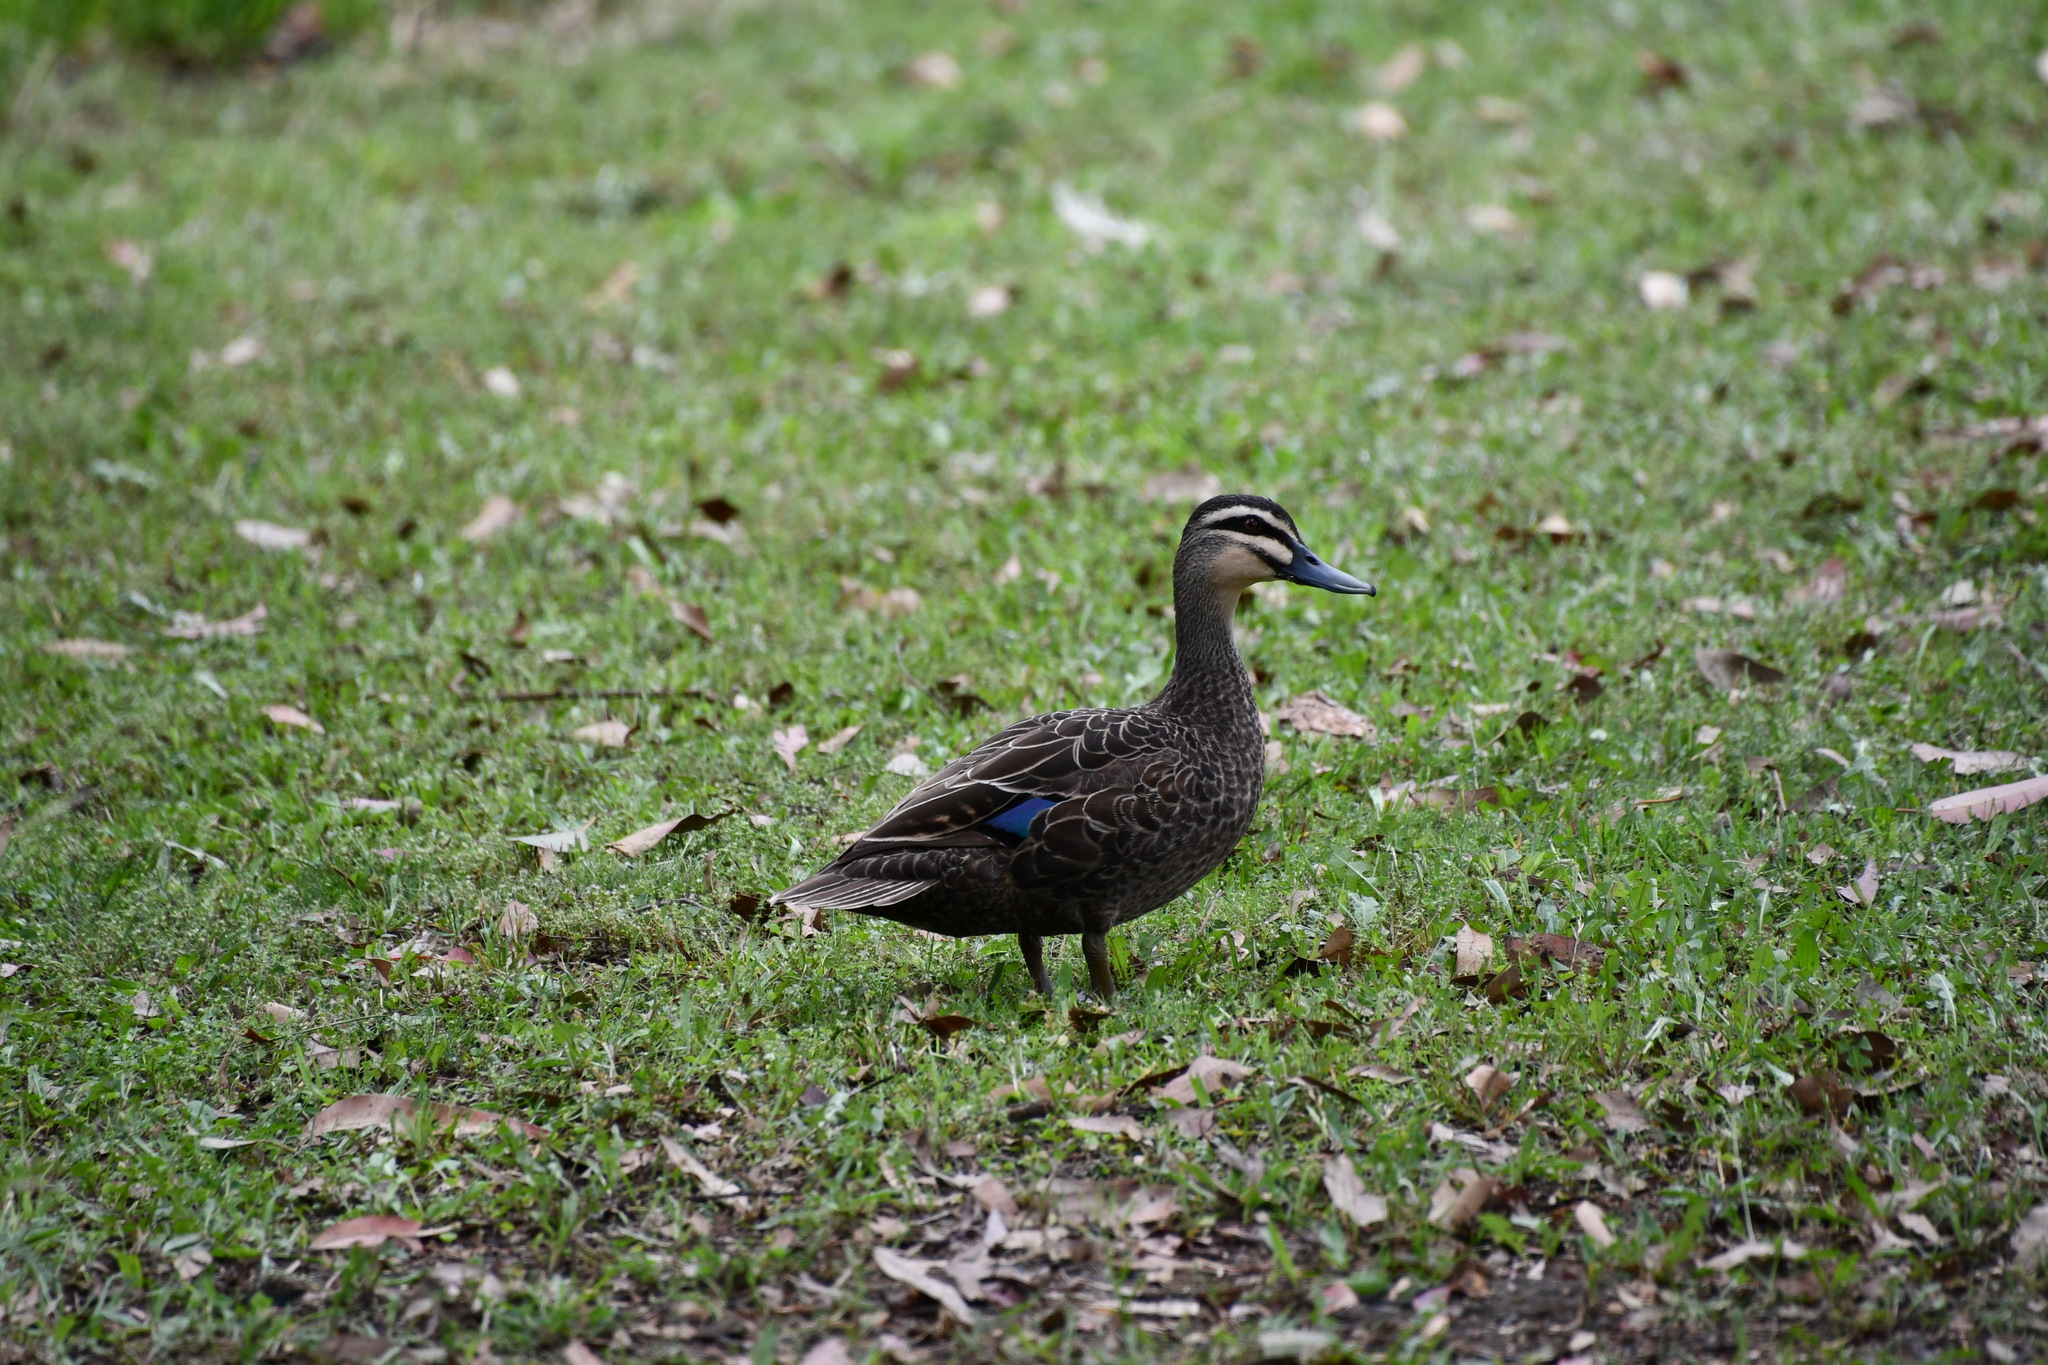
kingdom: Animalia
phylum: Chordata
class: Aves
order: Anseriformes
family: Anatidae
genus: Anas
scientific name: Anas superciliosa
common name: Pacific black duck
